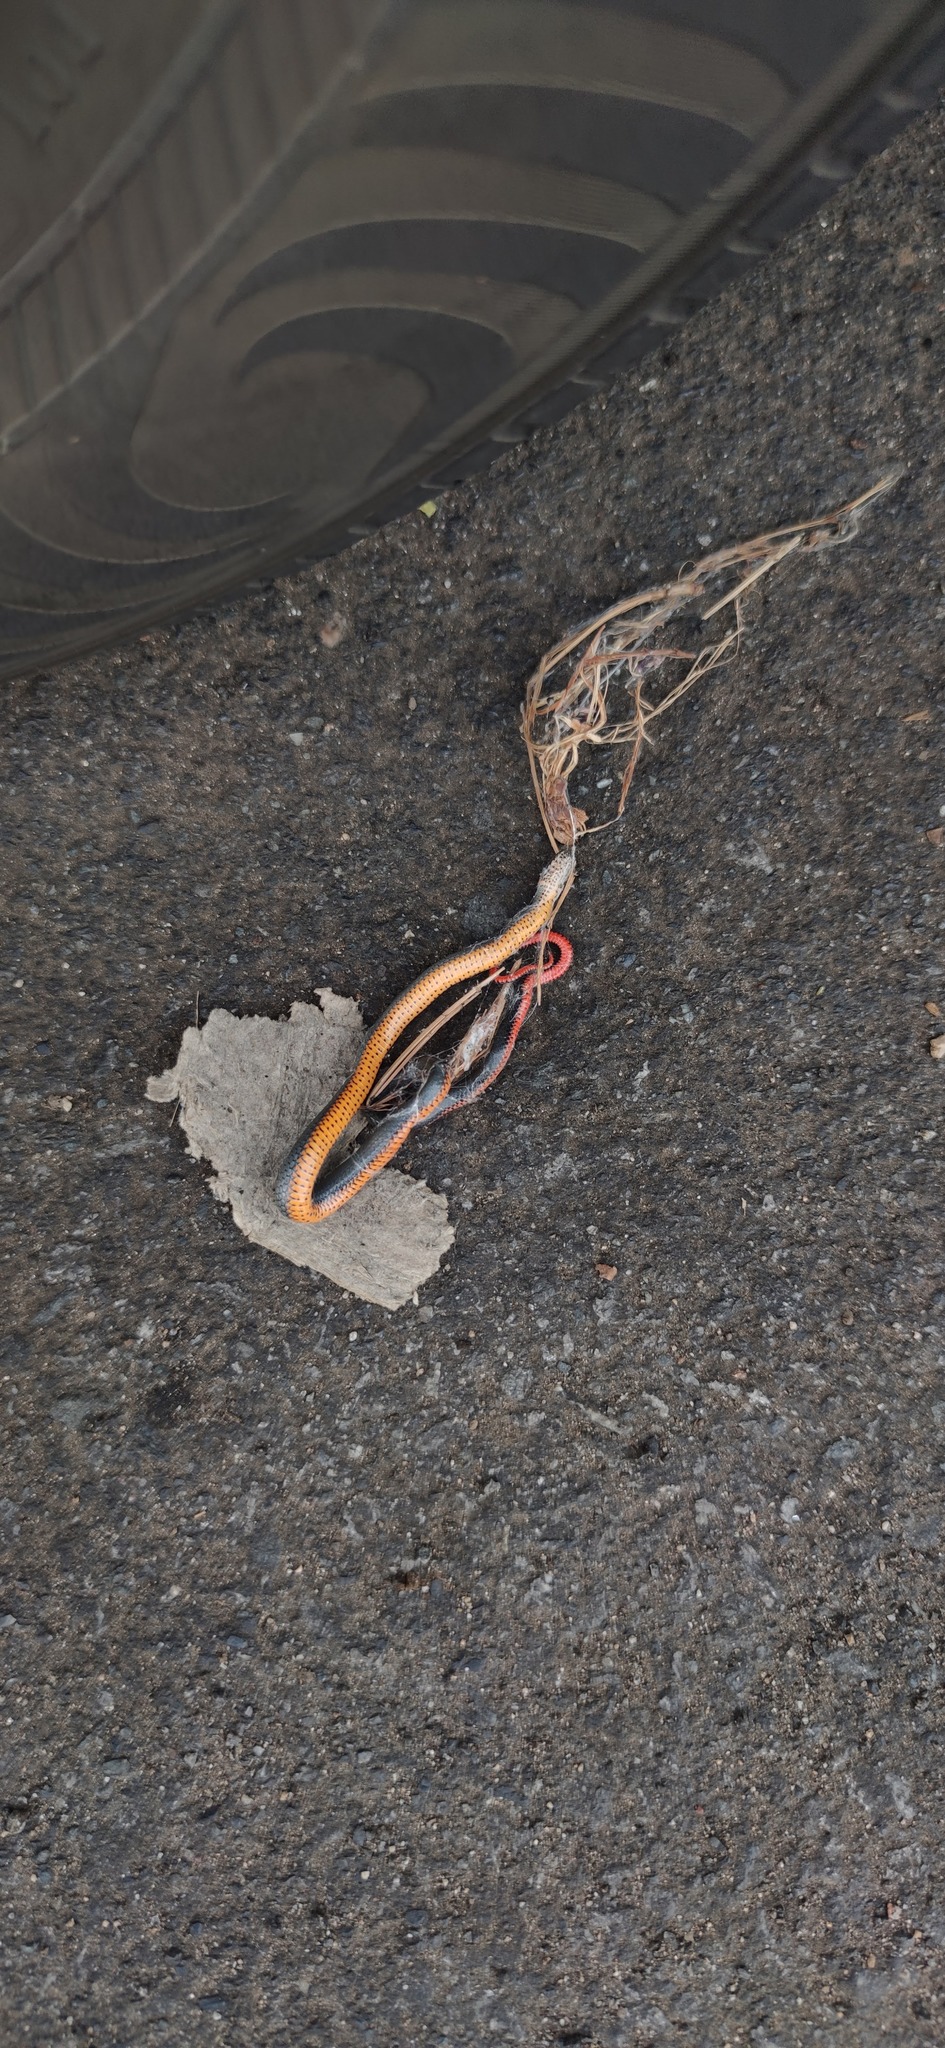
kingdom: Animalia
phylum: Chordata
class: Squamata
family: Colubridae
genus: Diadophis
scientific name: Diadophis punctatus
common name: Ringneck snake
